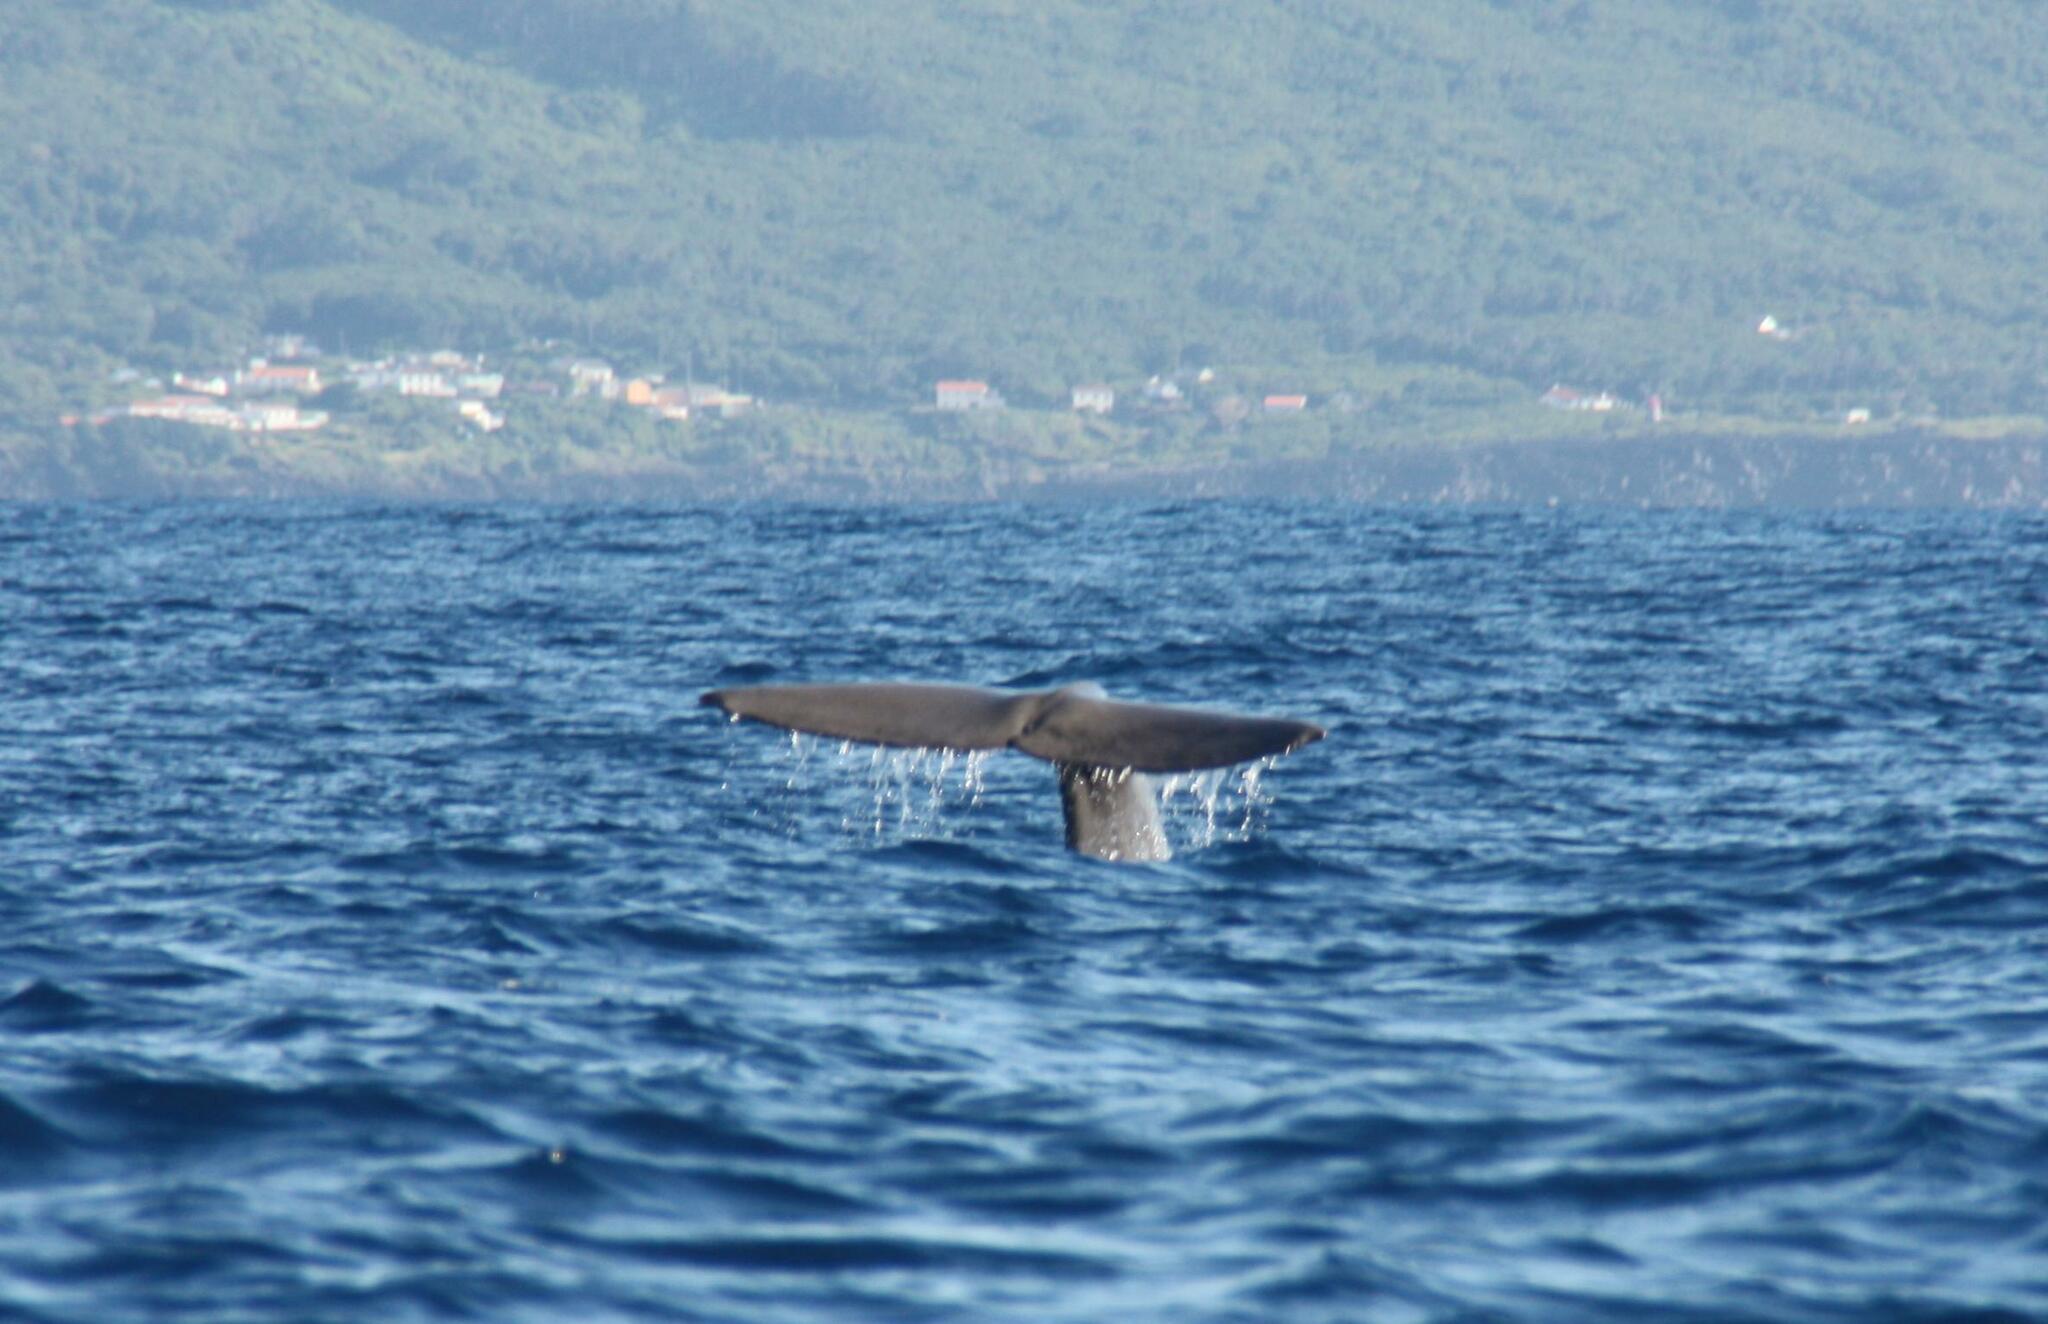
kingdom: Animalia
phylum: Chordata
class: Mammalia
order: Cetacea
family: Physeteridae
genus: Physeter
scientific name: Physeter macrocephalus
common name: Sperm whale
